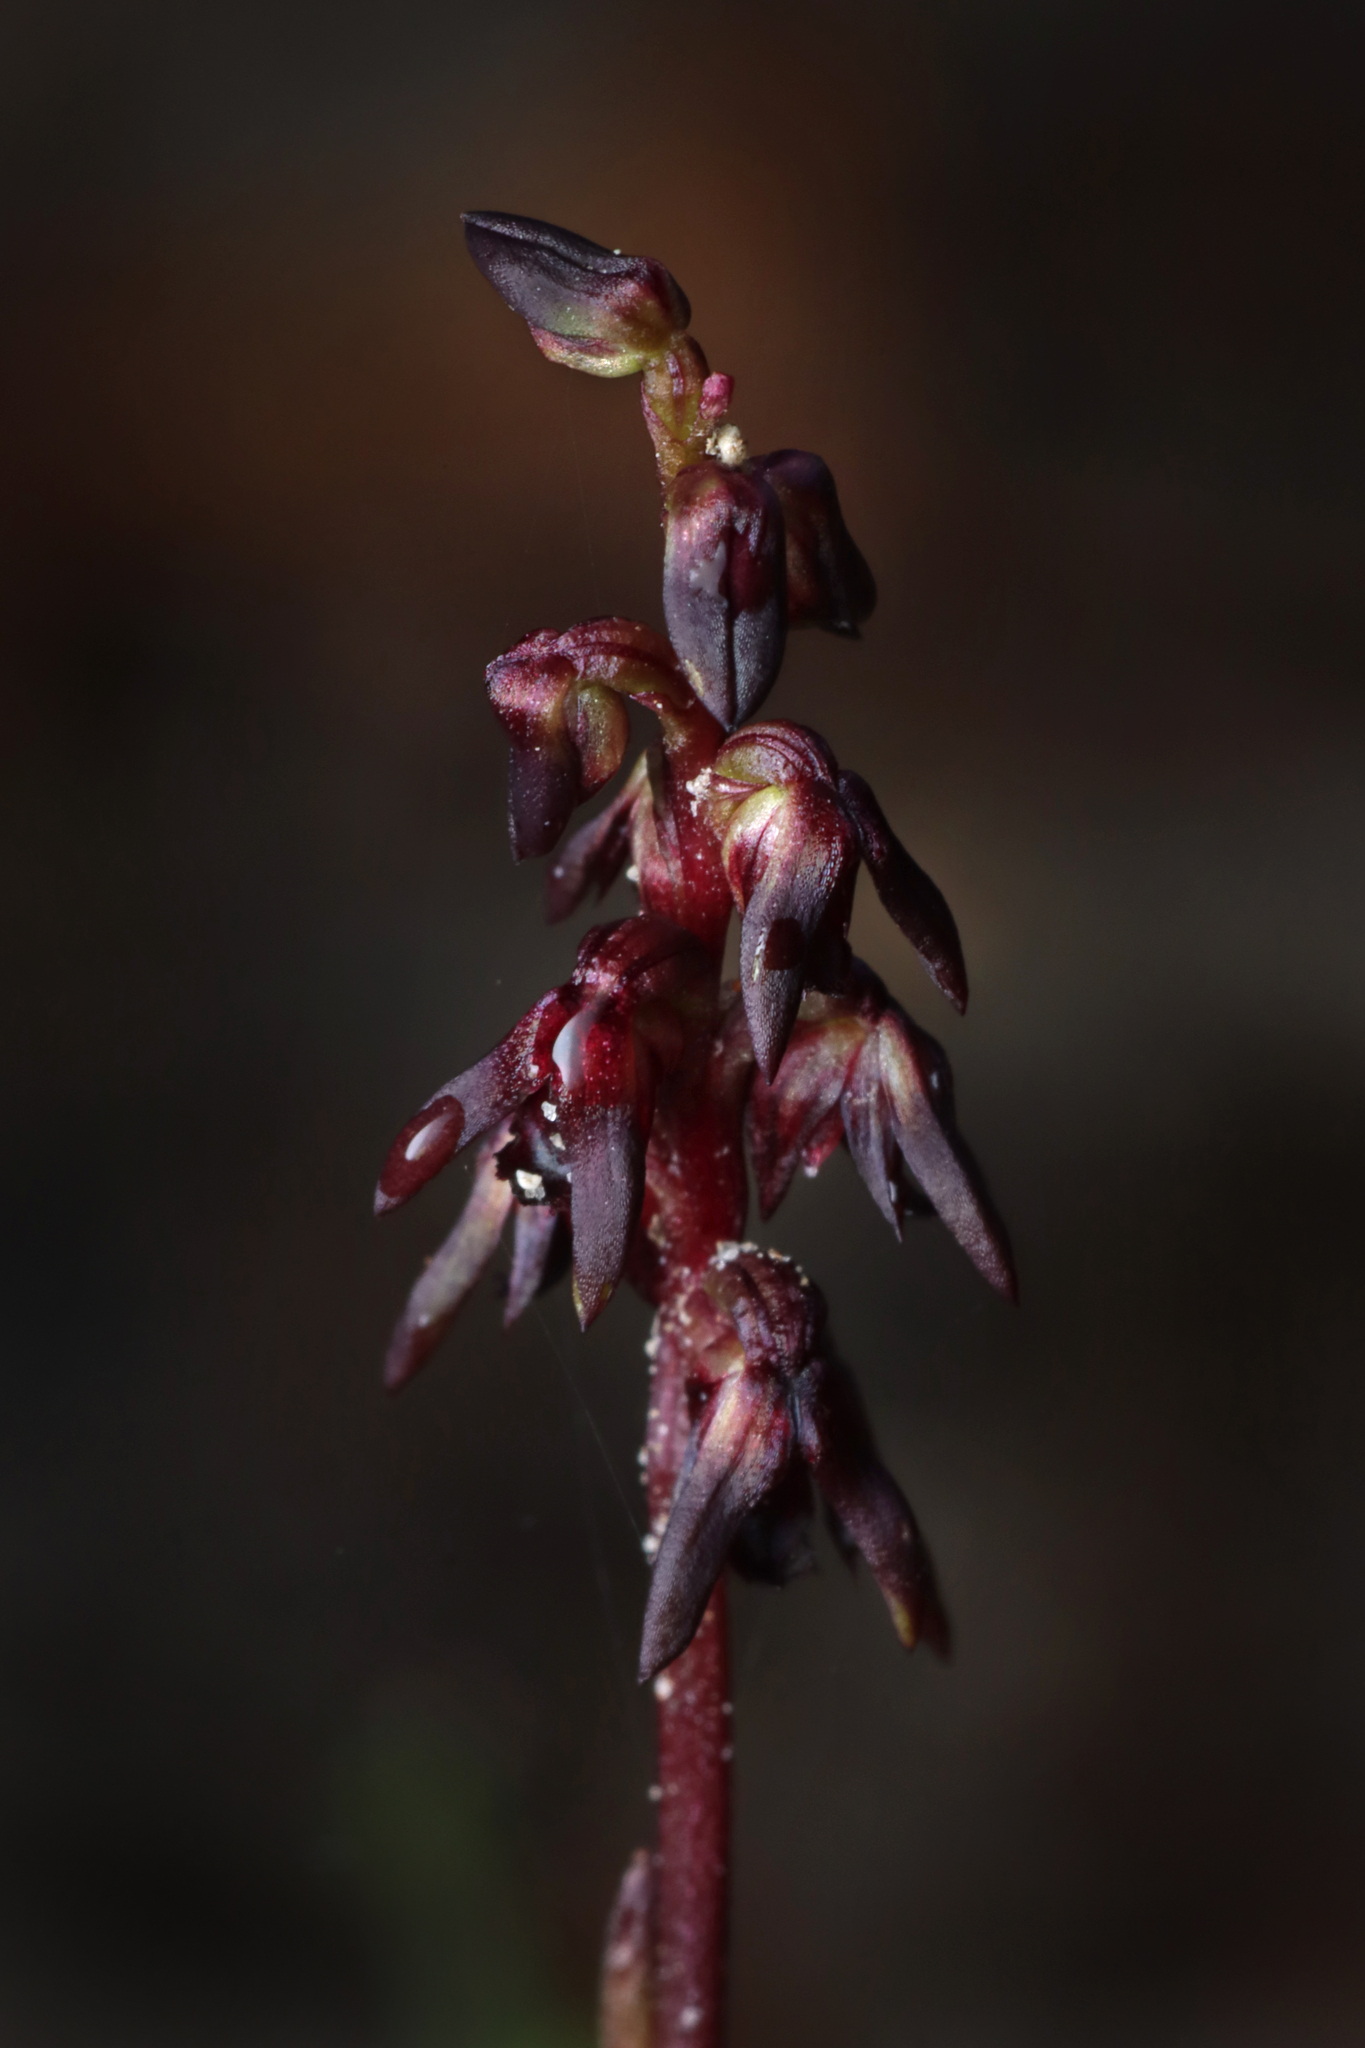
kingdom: Plantae
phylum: Tracheophyta
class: Liliopsida
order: Asparagales
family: Orchidaceae
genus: Genoplesium
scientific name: Genoplesium rufum
